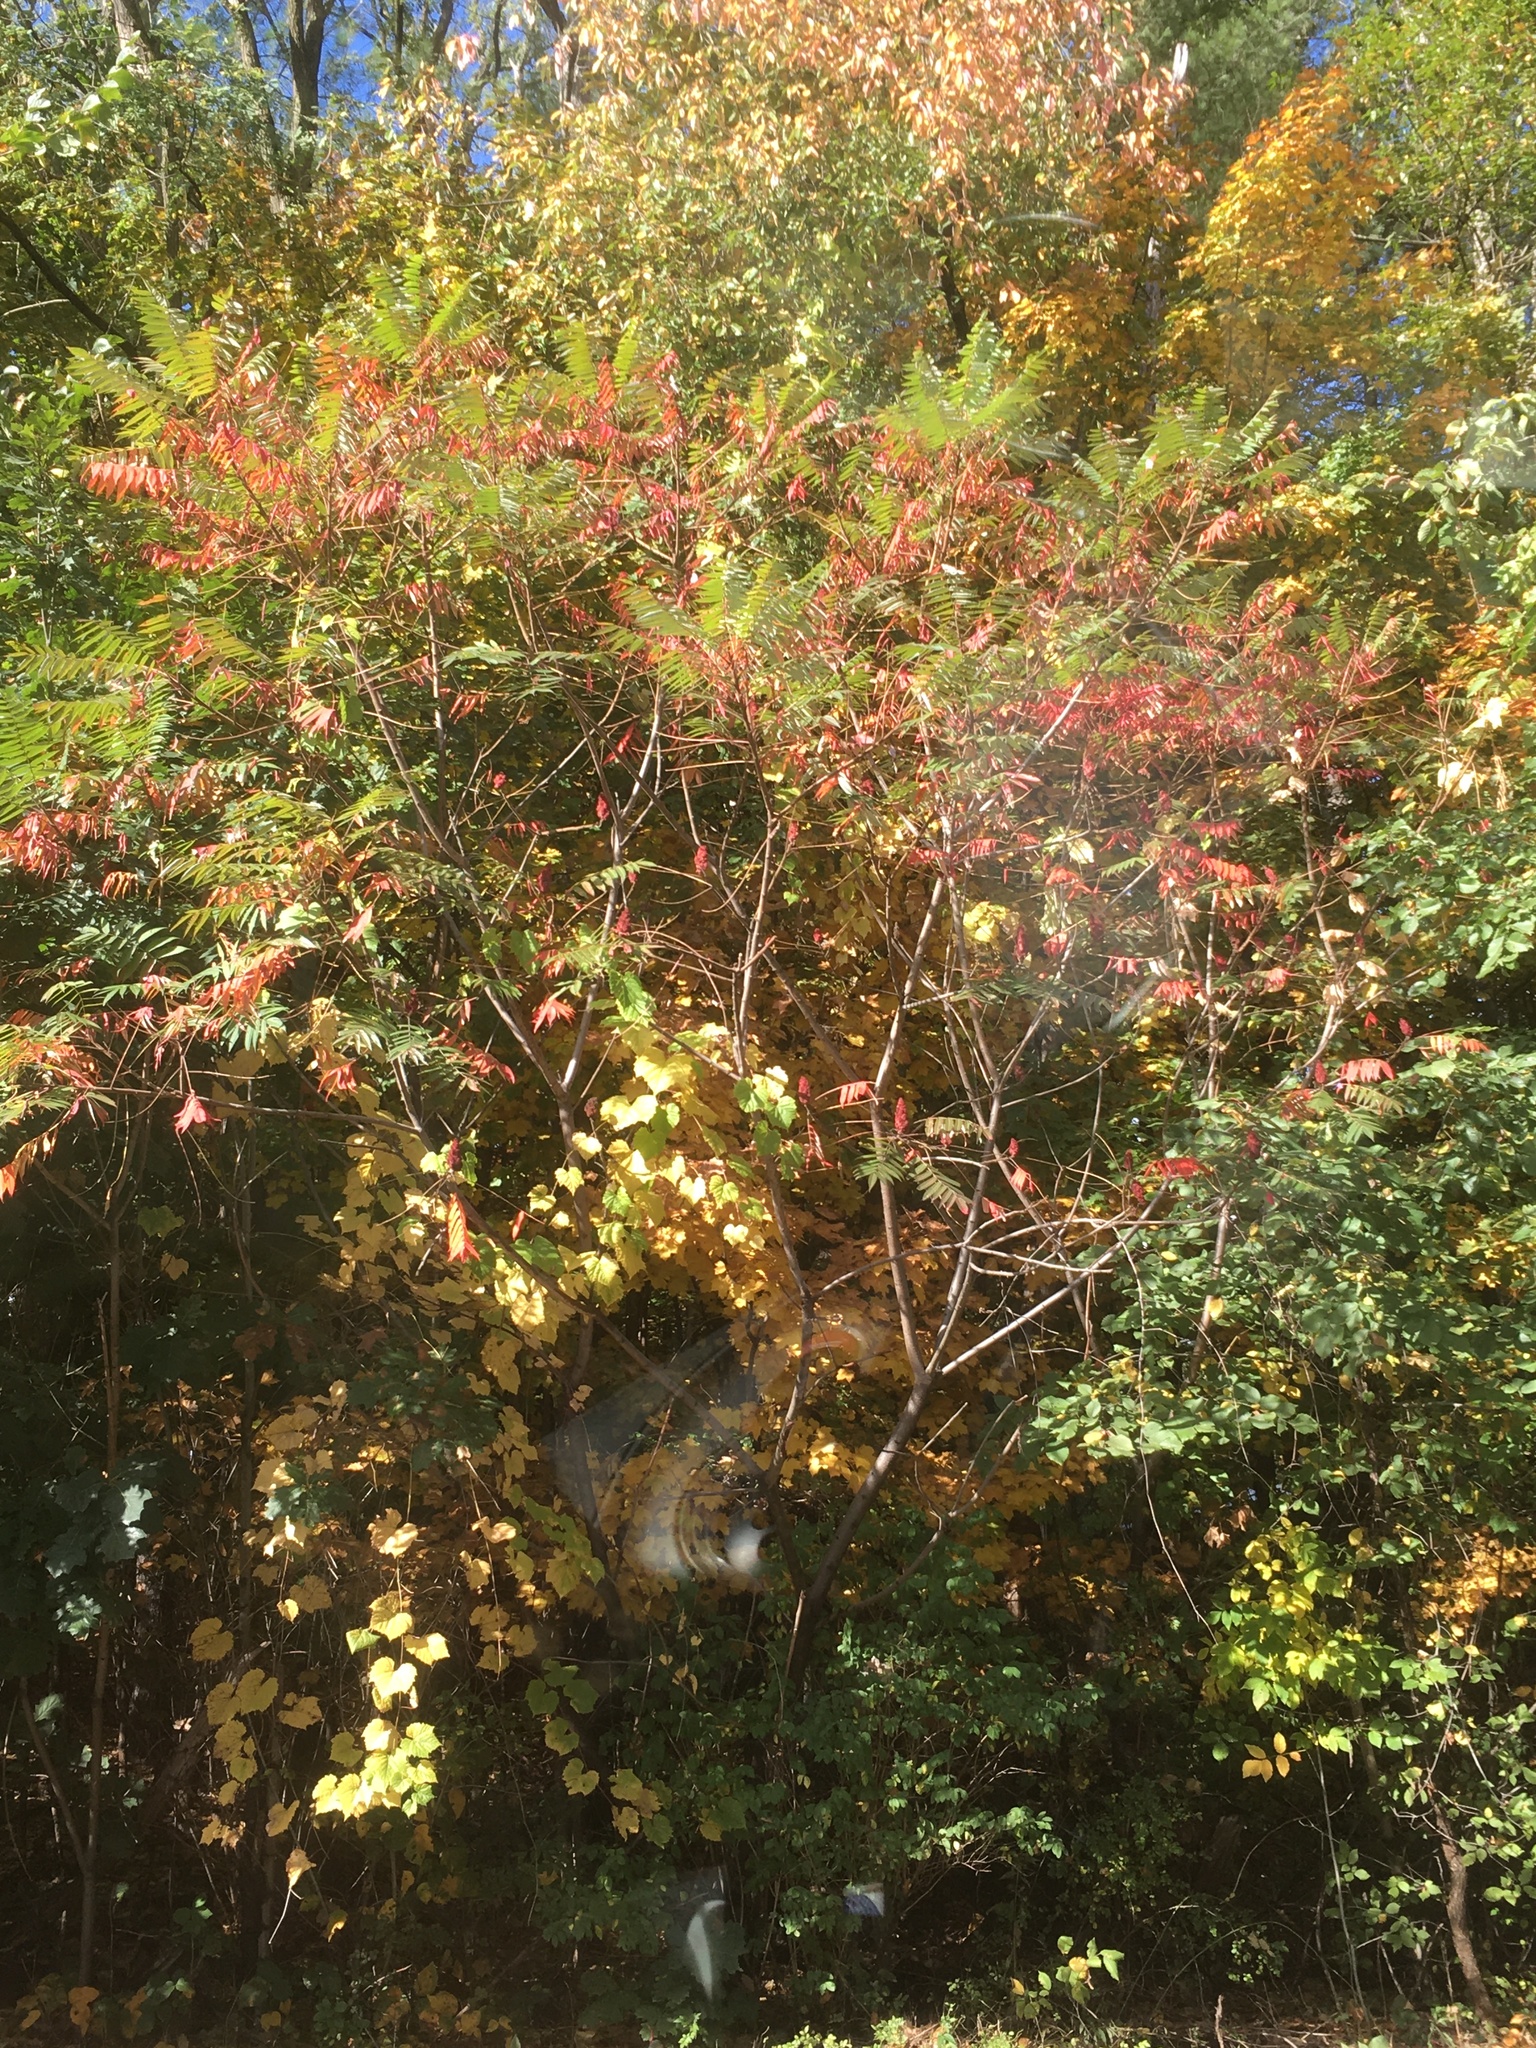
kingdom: Plantae
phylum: Tracheophyta
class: Magnoliopsida
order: Sapindales
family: Anacardiaceae
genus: Rhus
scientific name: Rhus typhina
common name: Staghorn sumac
